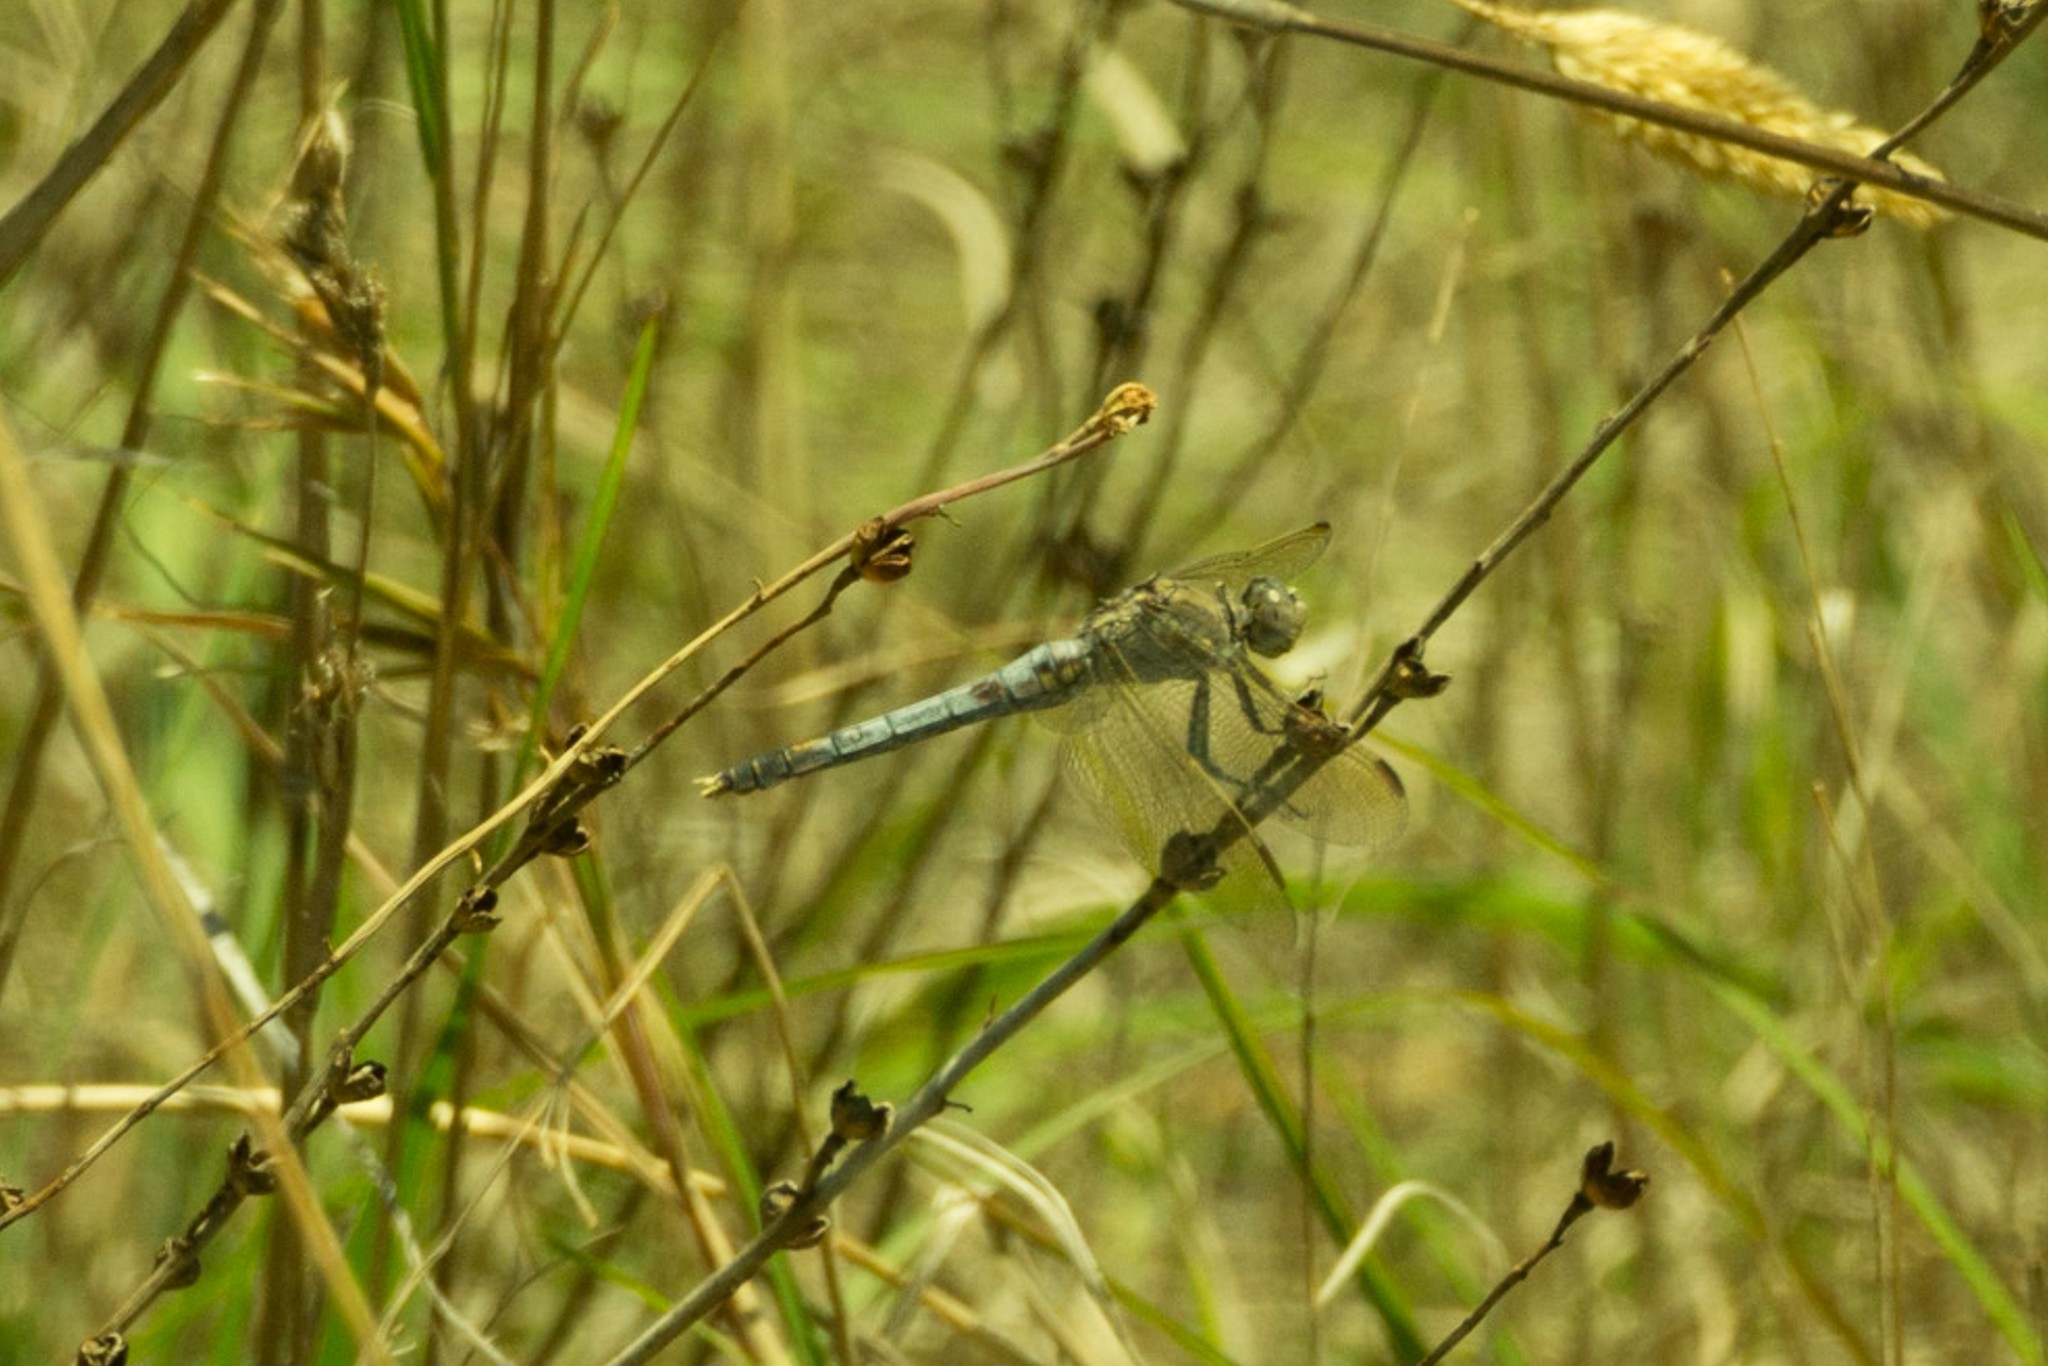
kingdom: Animalia
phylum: Arthropoda
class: Insecta
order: Odonata
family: Libellulidae
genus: Orthetrum
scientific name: Orthetrum caledonicum
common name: Blue skimmer
